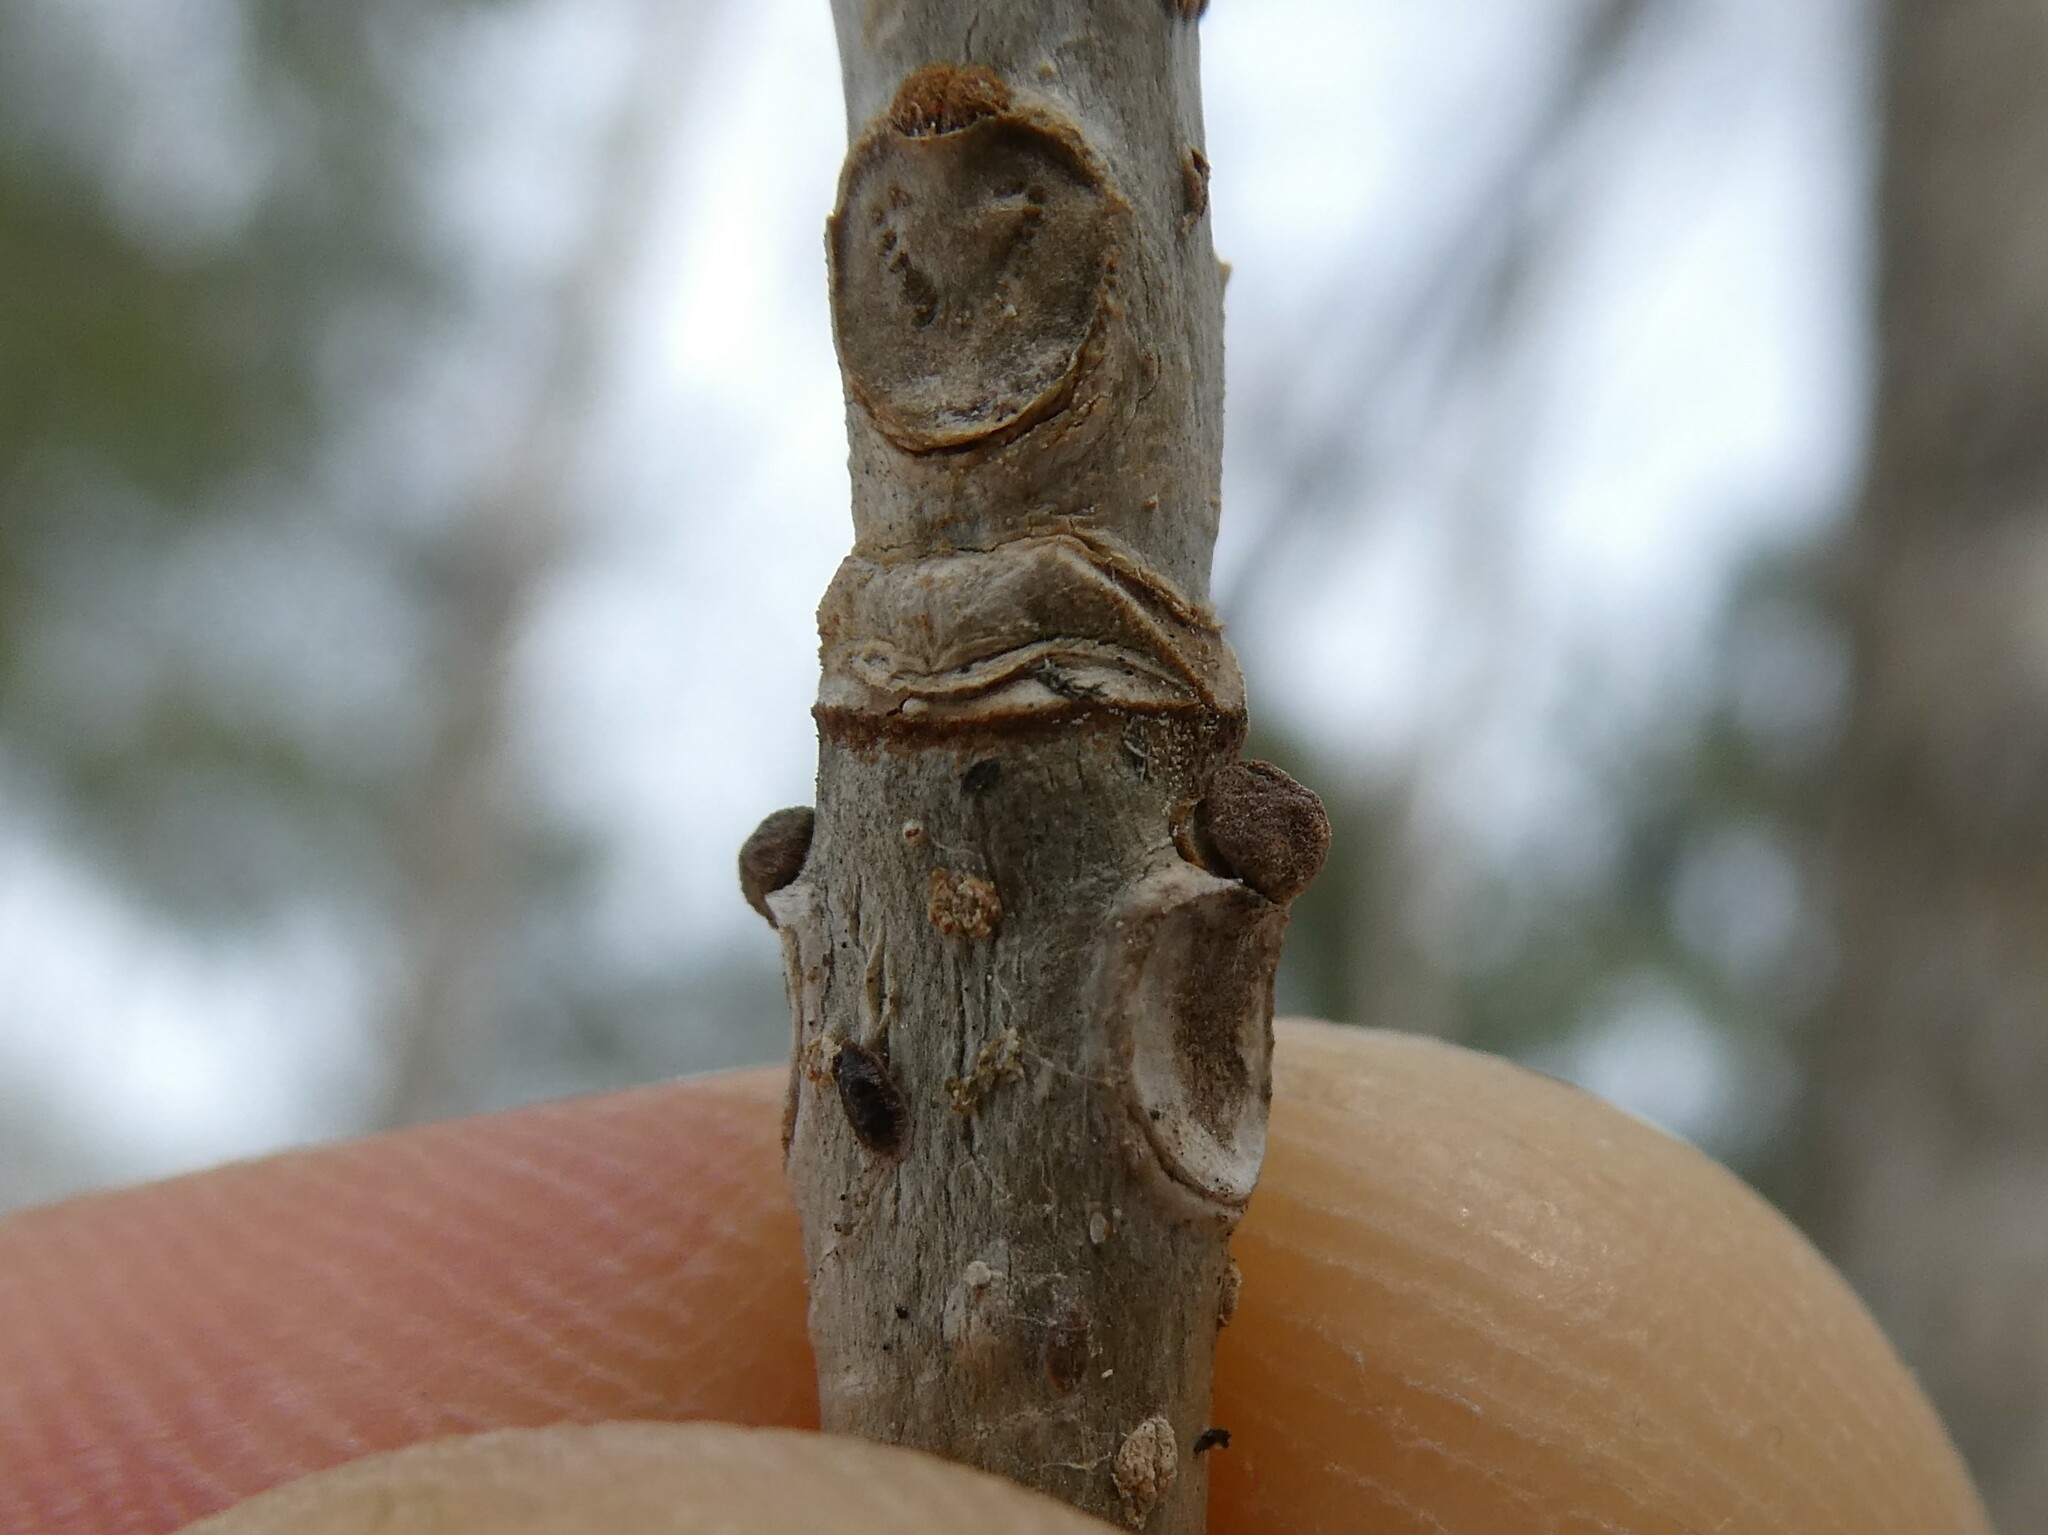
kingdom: Plantae
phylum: Tracheophyta
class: Magnoliopsida
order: Lamiales
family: Oleaceae
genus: Fraxinus
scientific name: Fraxinus nigra
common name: Black ash
